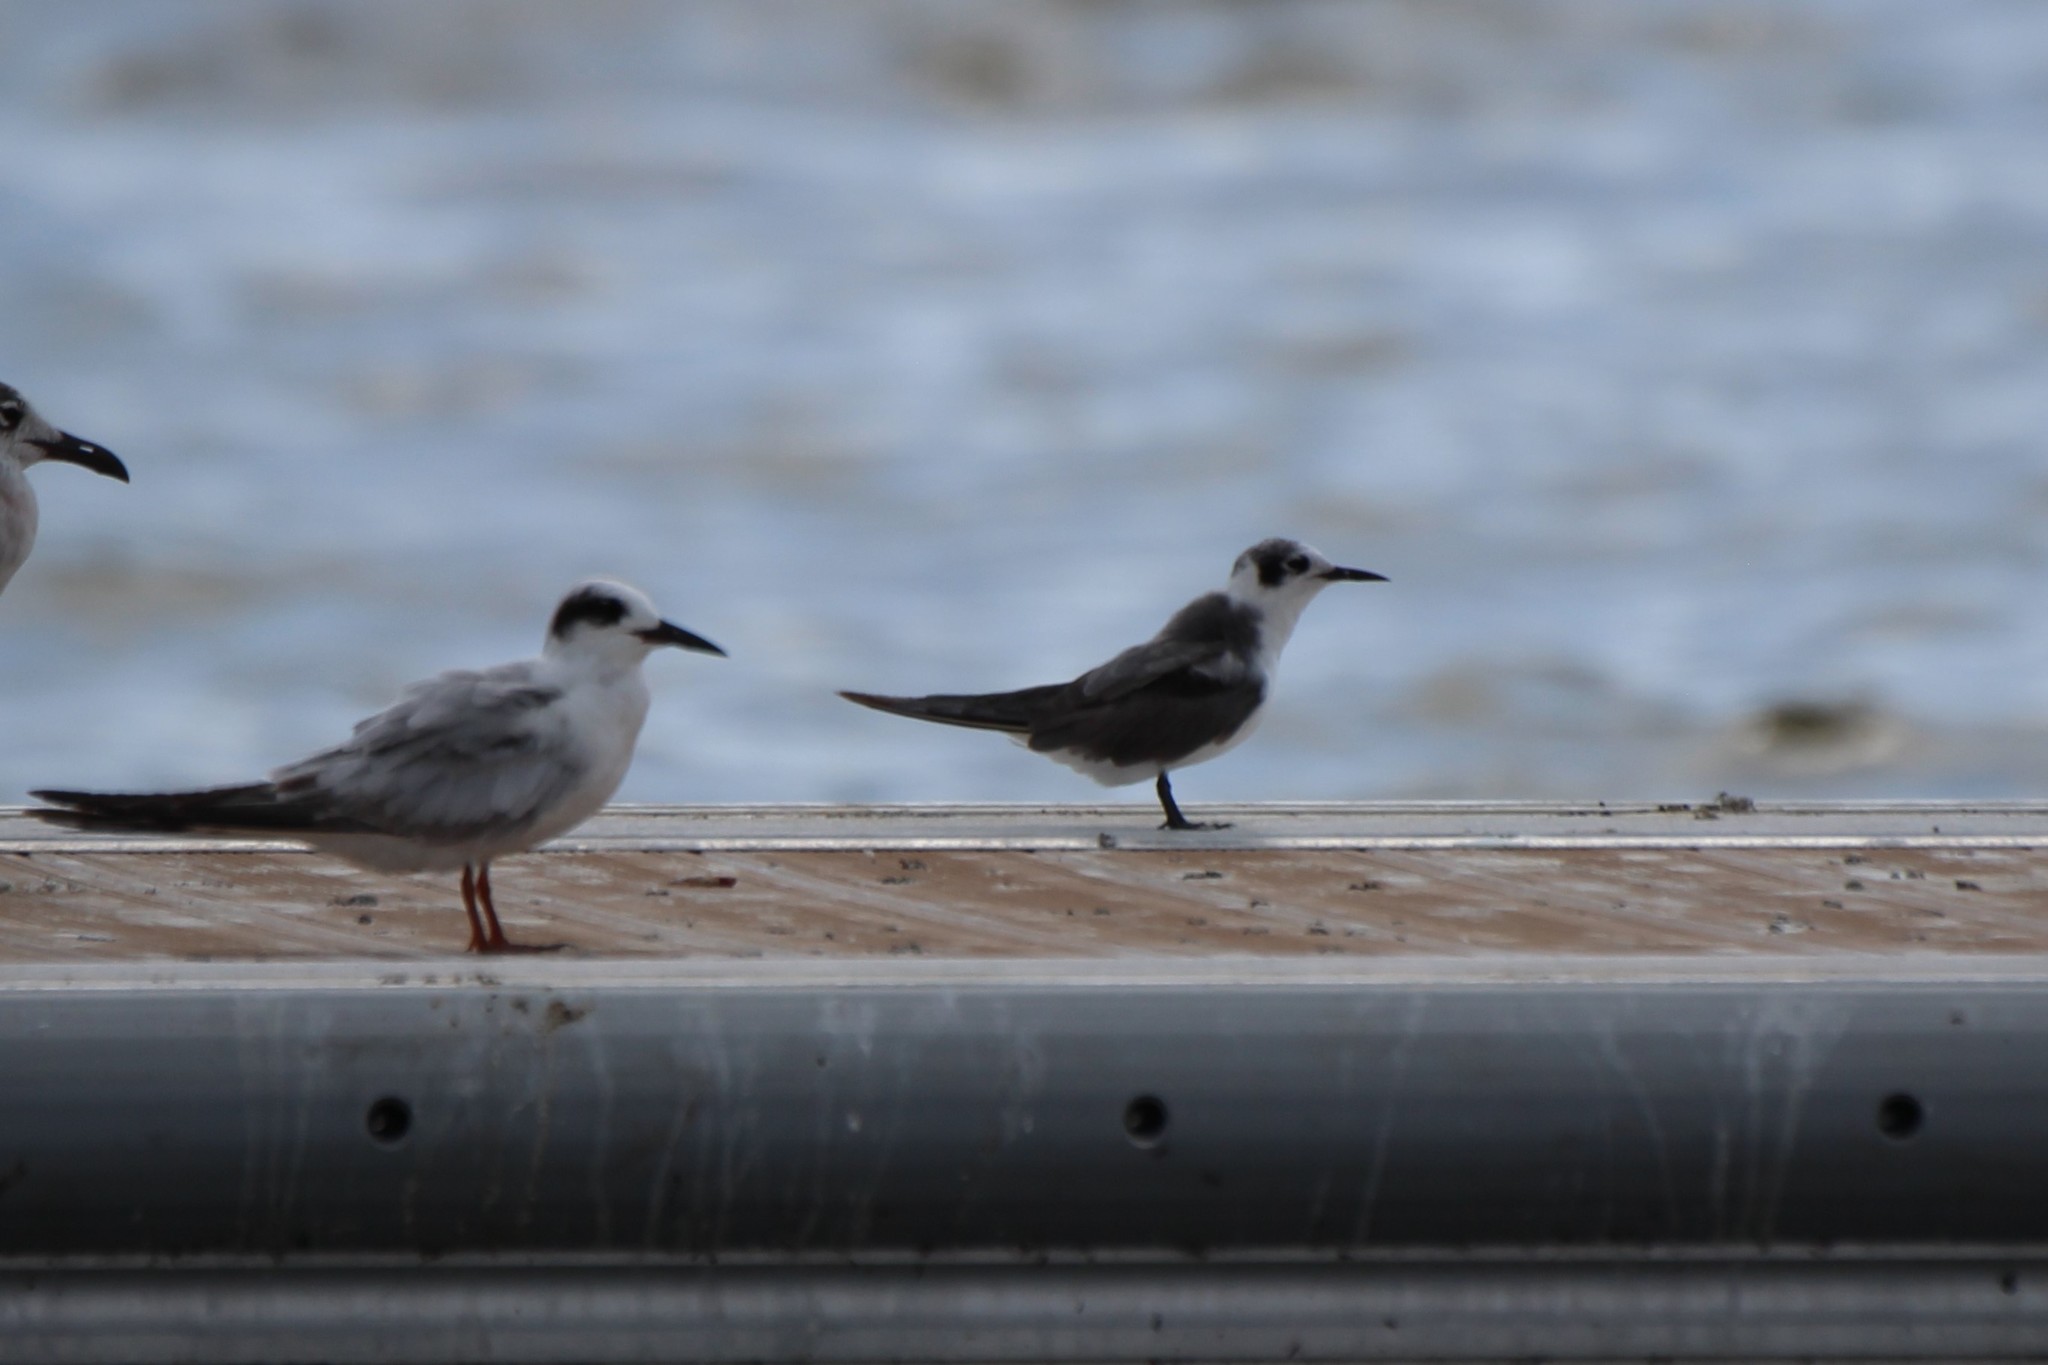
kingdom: Animalia
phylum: Chordata
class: Aves
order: Charadriiformes
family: Laridae
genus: Chlidonias
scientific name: Chlidonias niger
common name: Black tern
